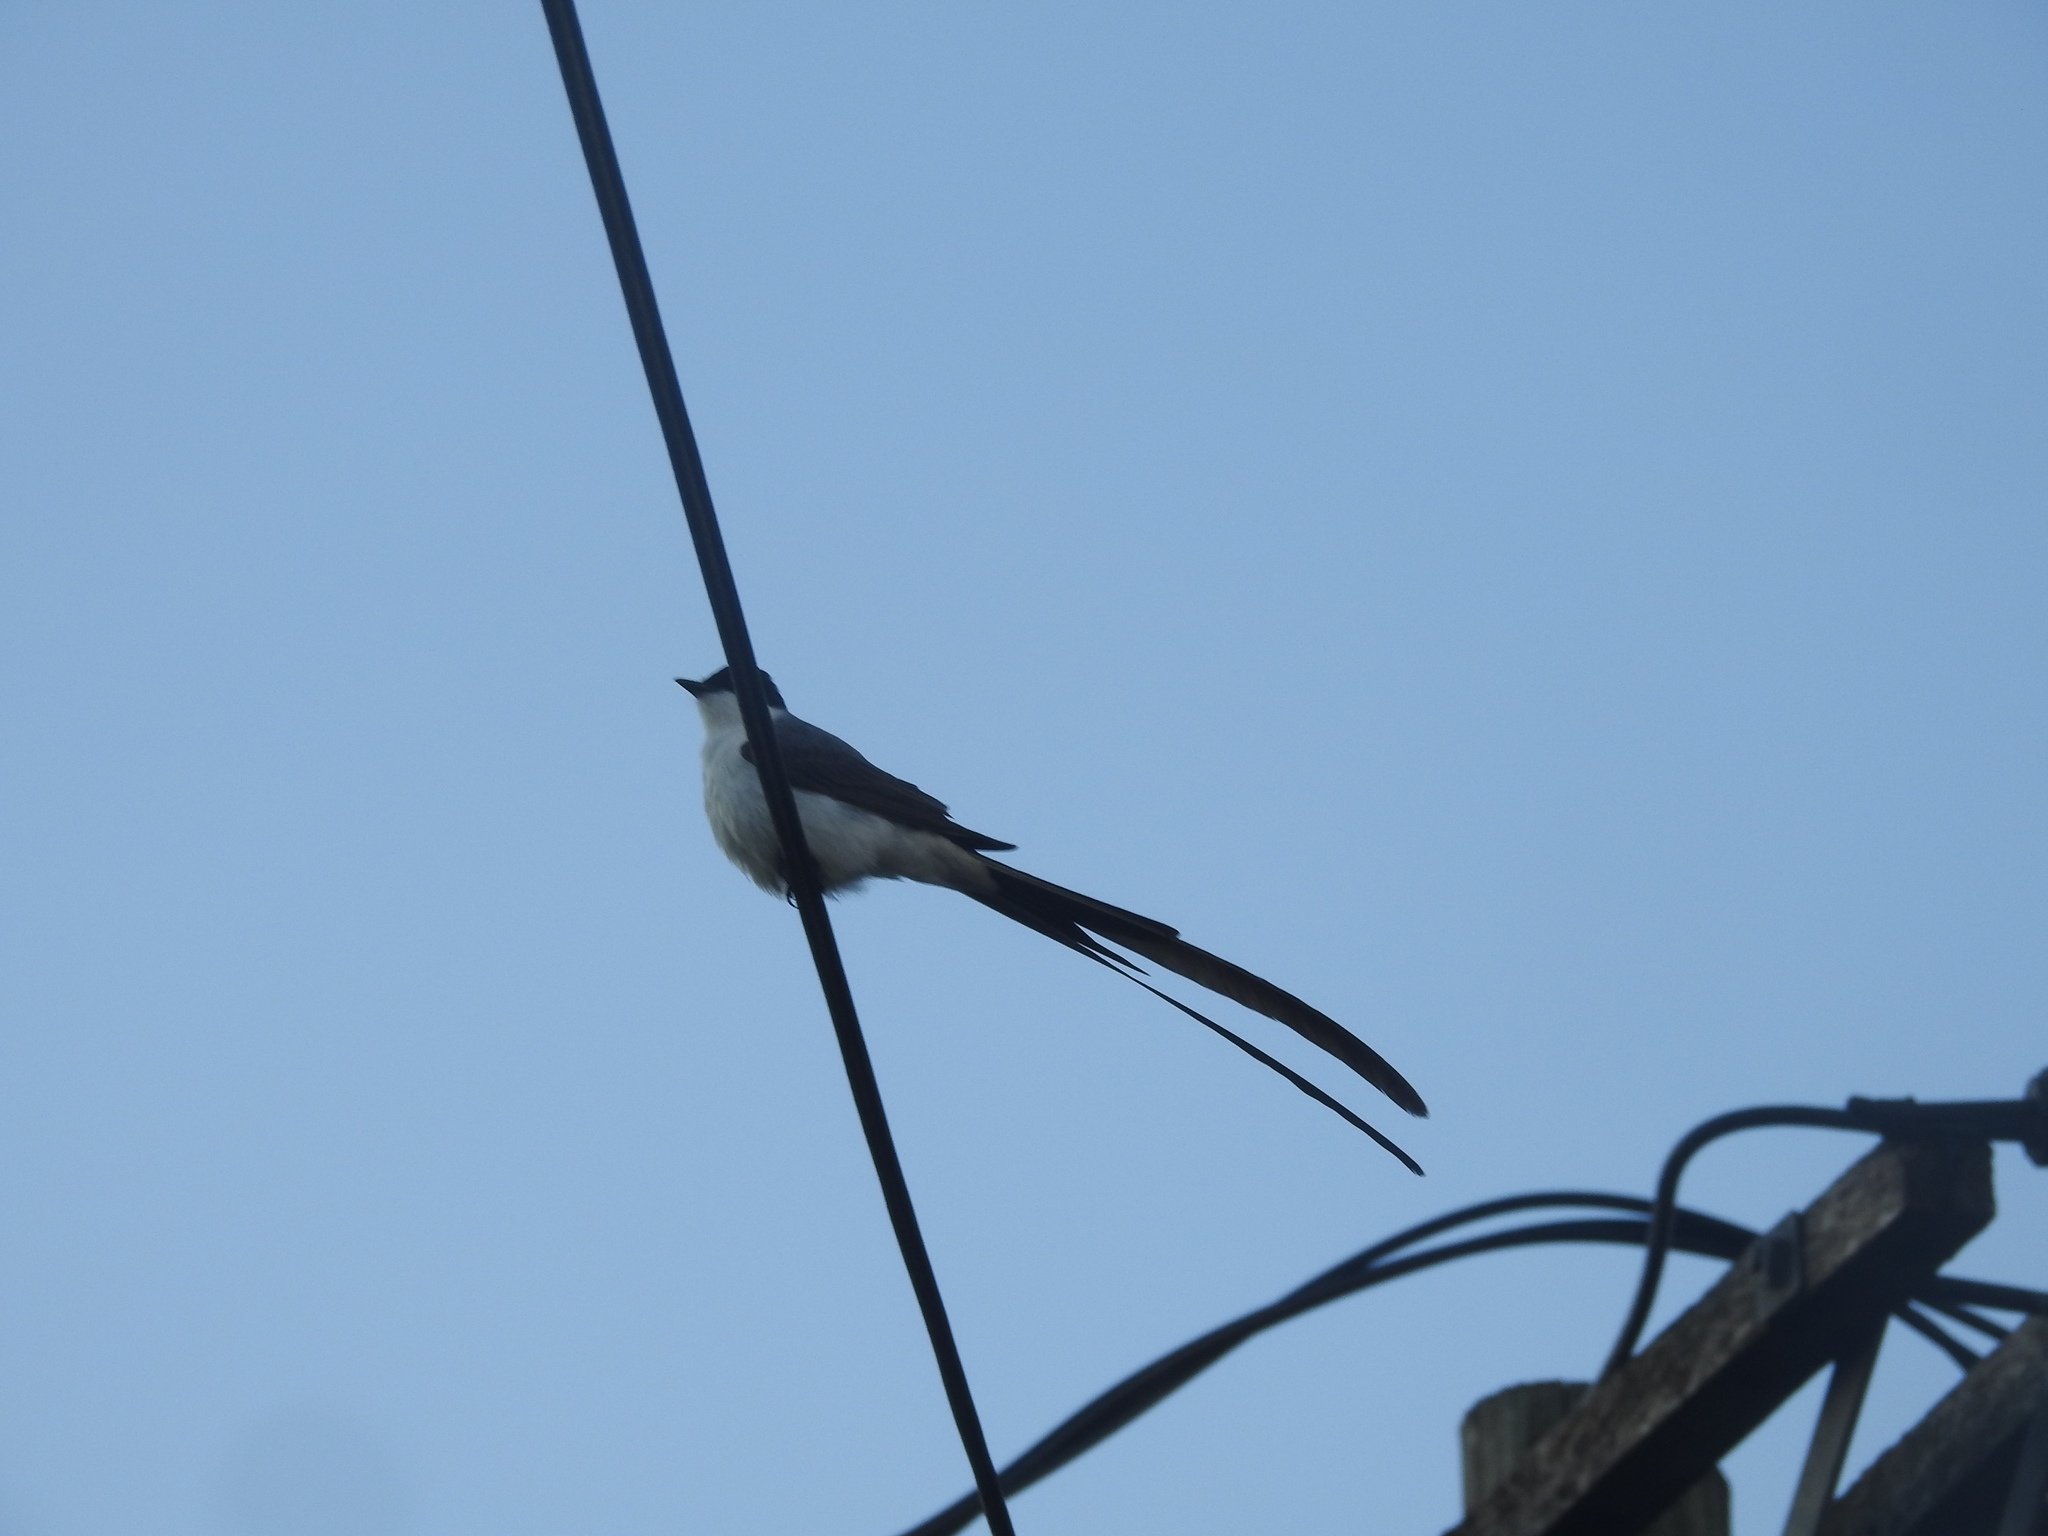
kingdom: Animalia
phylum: Chordata
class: Aves
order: Passeriformes
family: Tyrannidae
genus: Tyrannus
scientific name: Tyrannus savana
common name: Fork-tailed flycatcher
